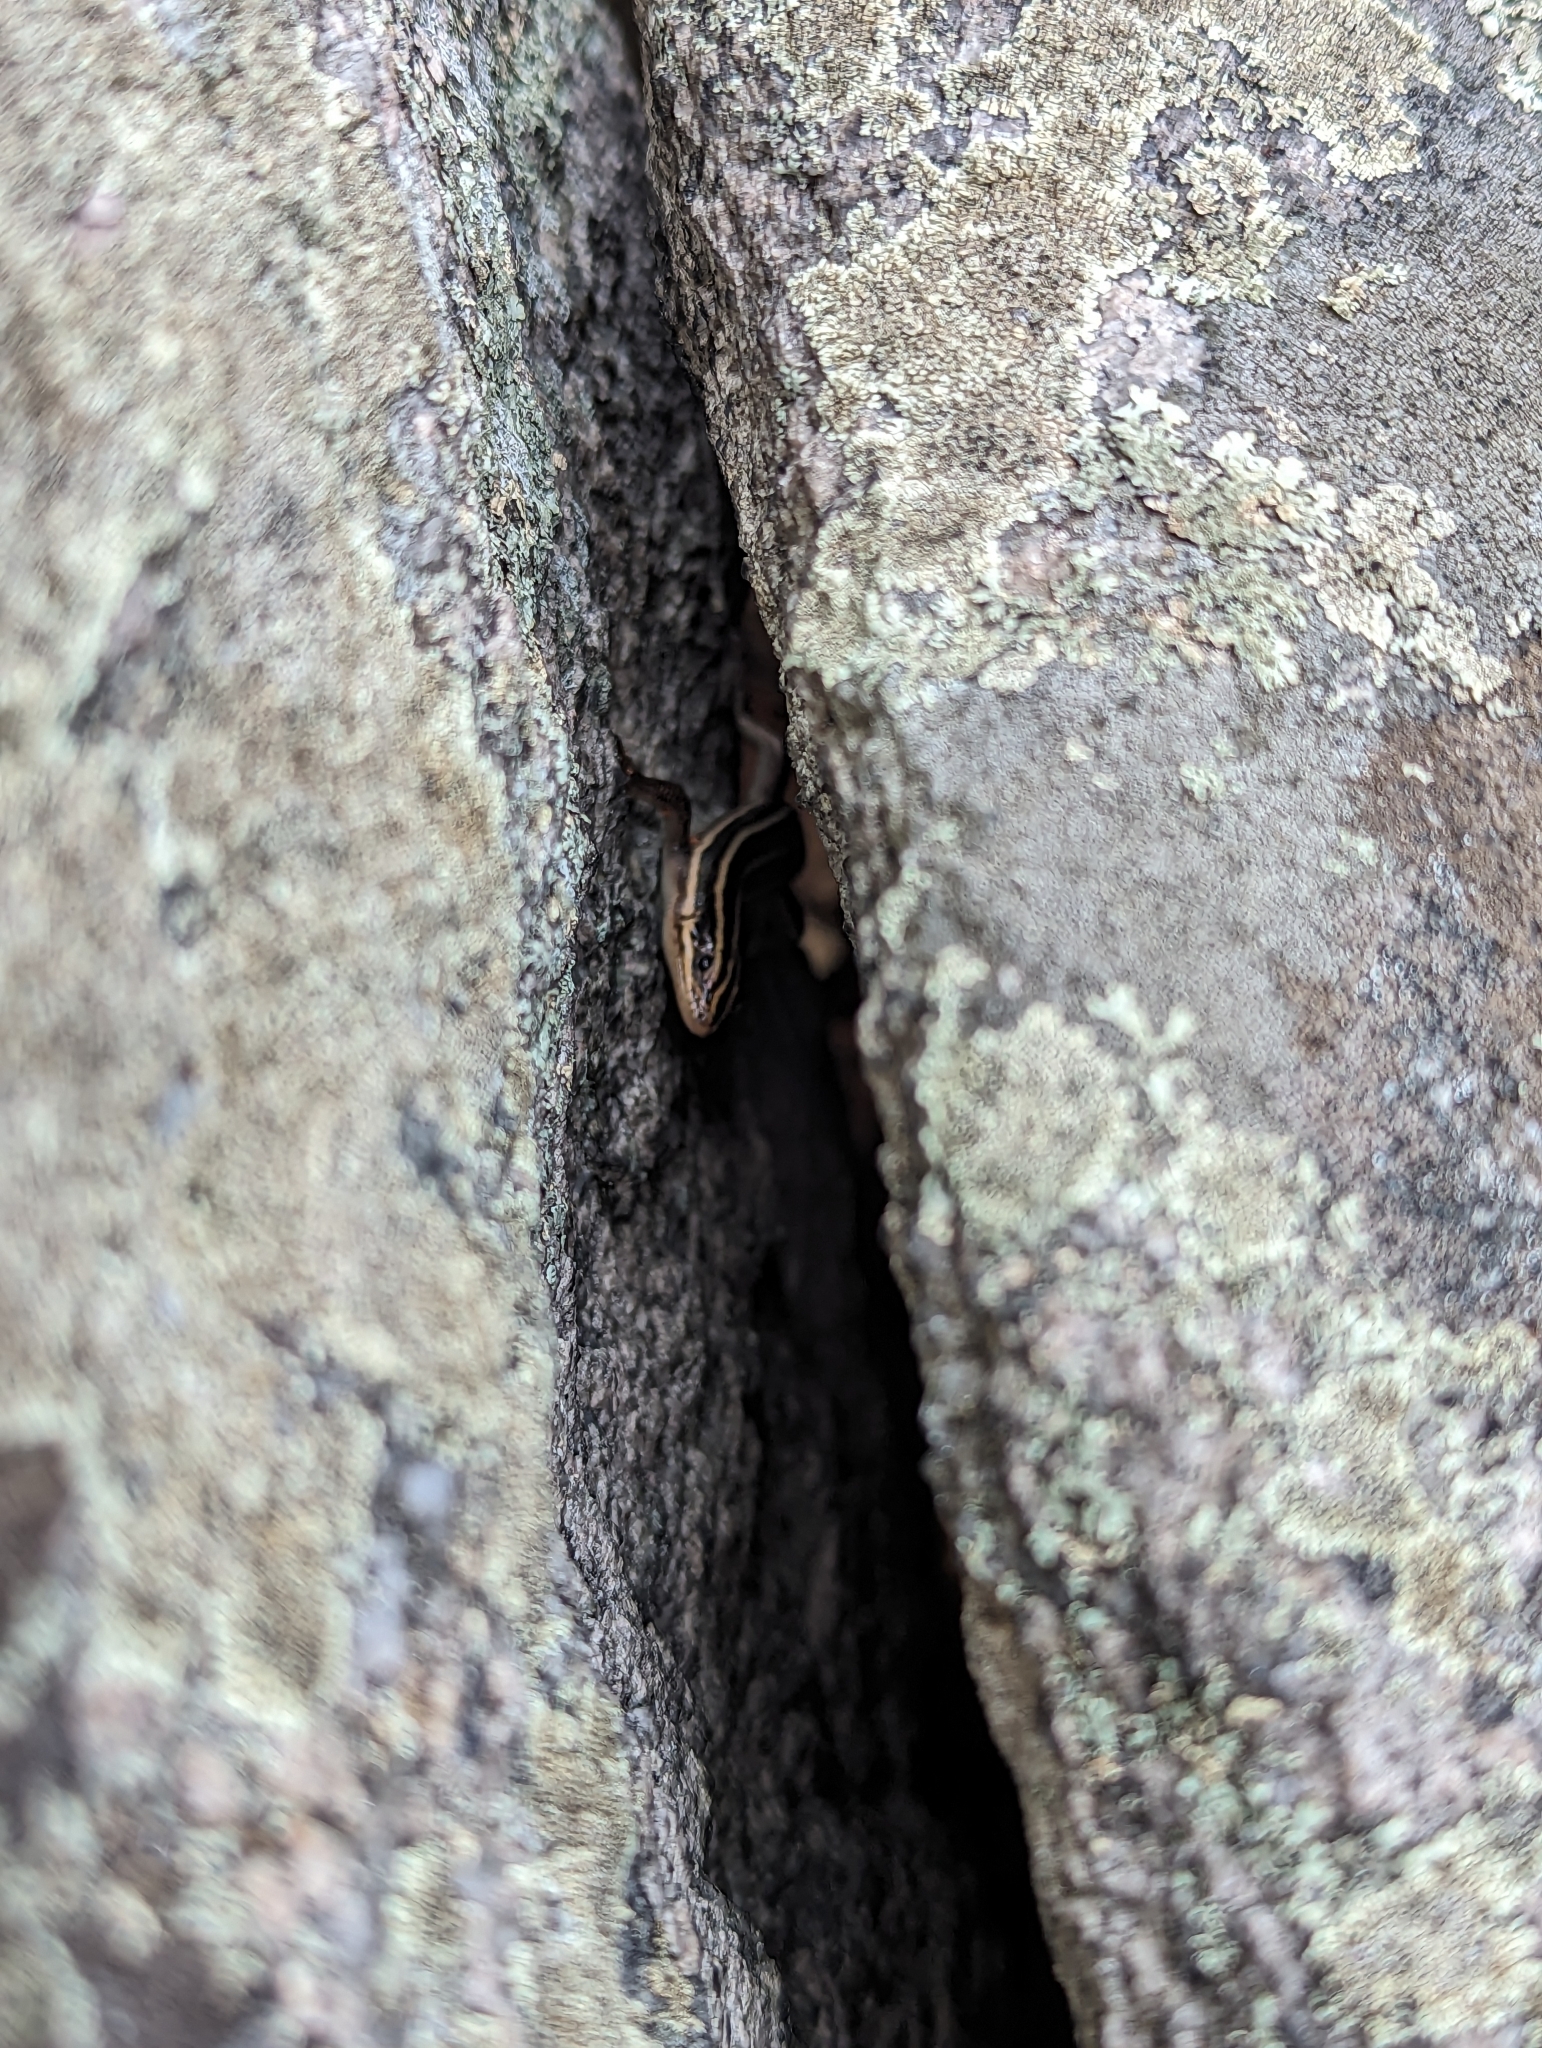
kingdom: Animalia
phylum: Chordata
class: Squamata
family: Scincidae
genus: Plestiodon
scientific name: Plestiodon fasciatus
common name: Five-lined skink
